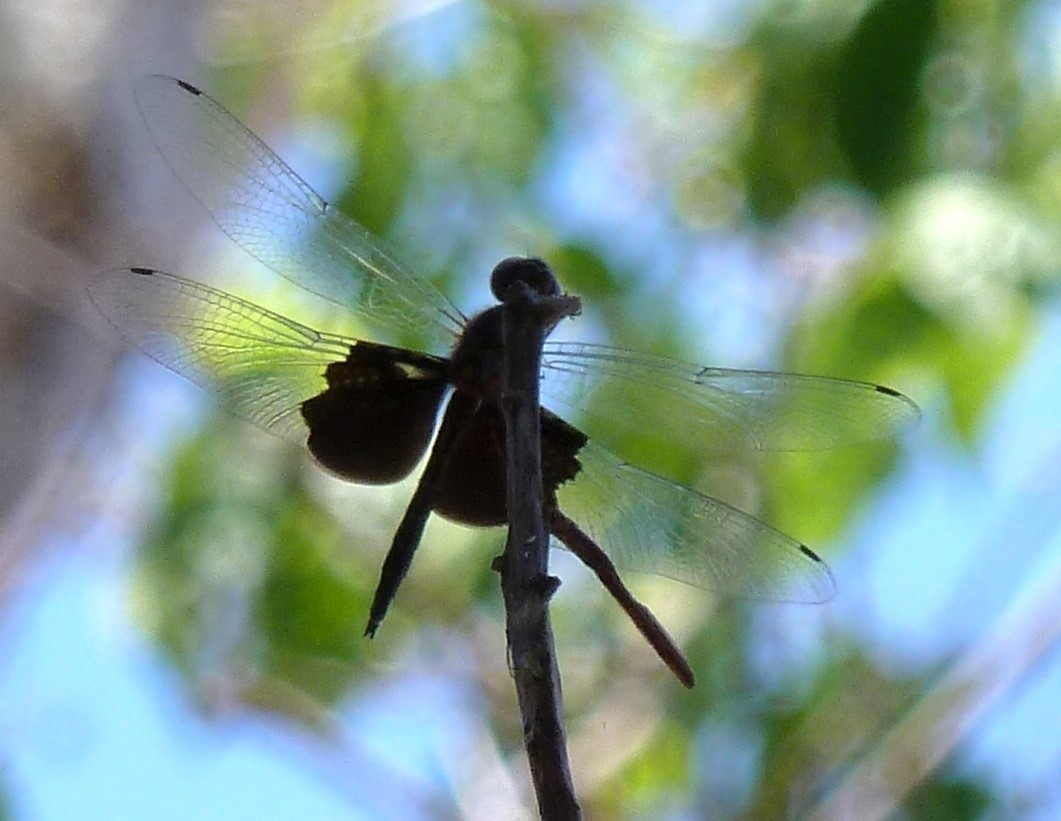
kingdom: Animalia
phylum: Arthropoda
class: Insecta
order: Odonata
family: Libellulidae
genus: Rhyothemis
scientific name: Rhyothemis semihyalina
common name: Phantom flutterer
